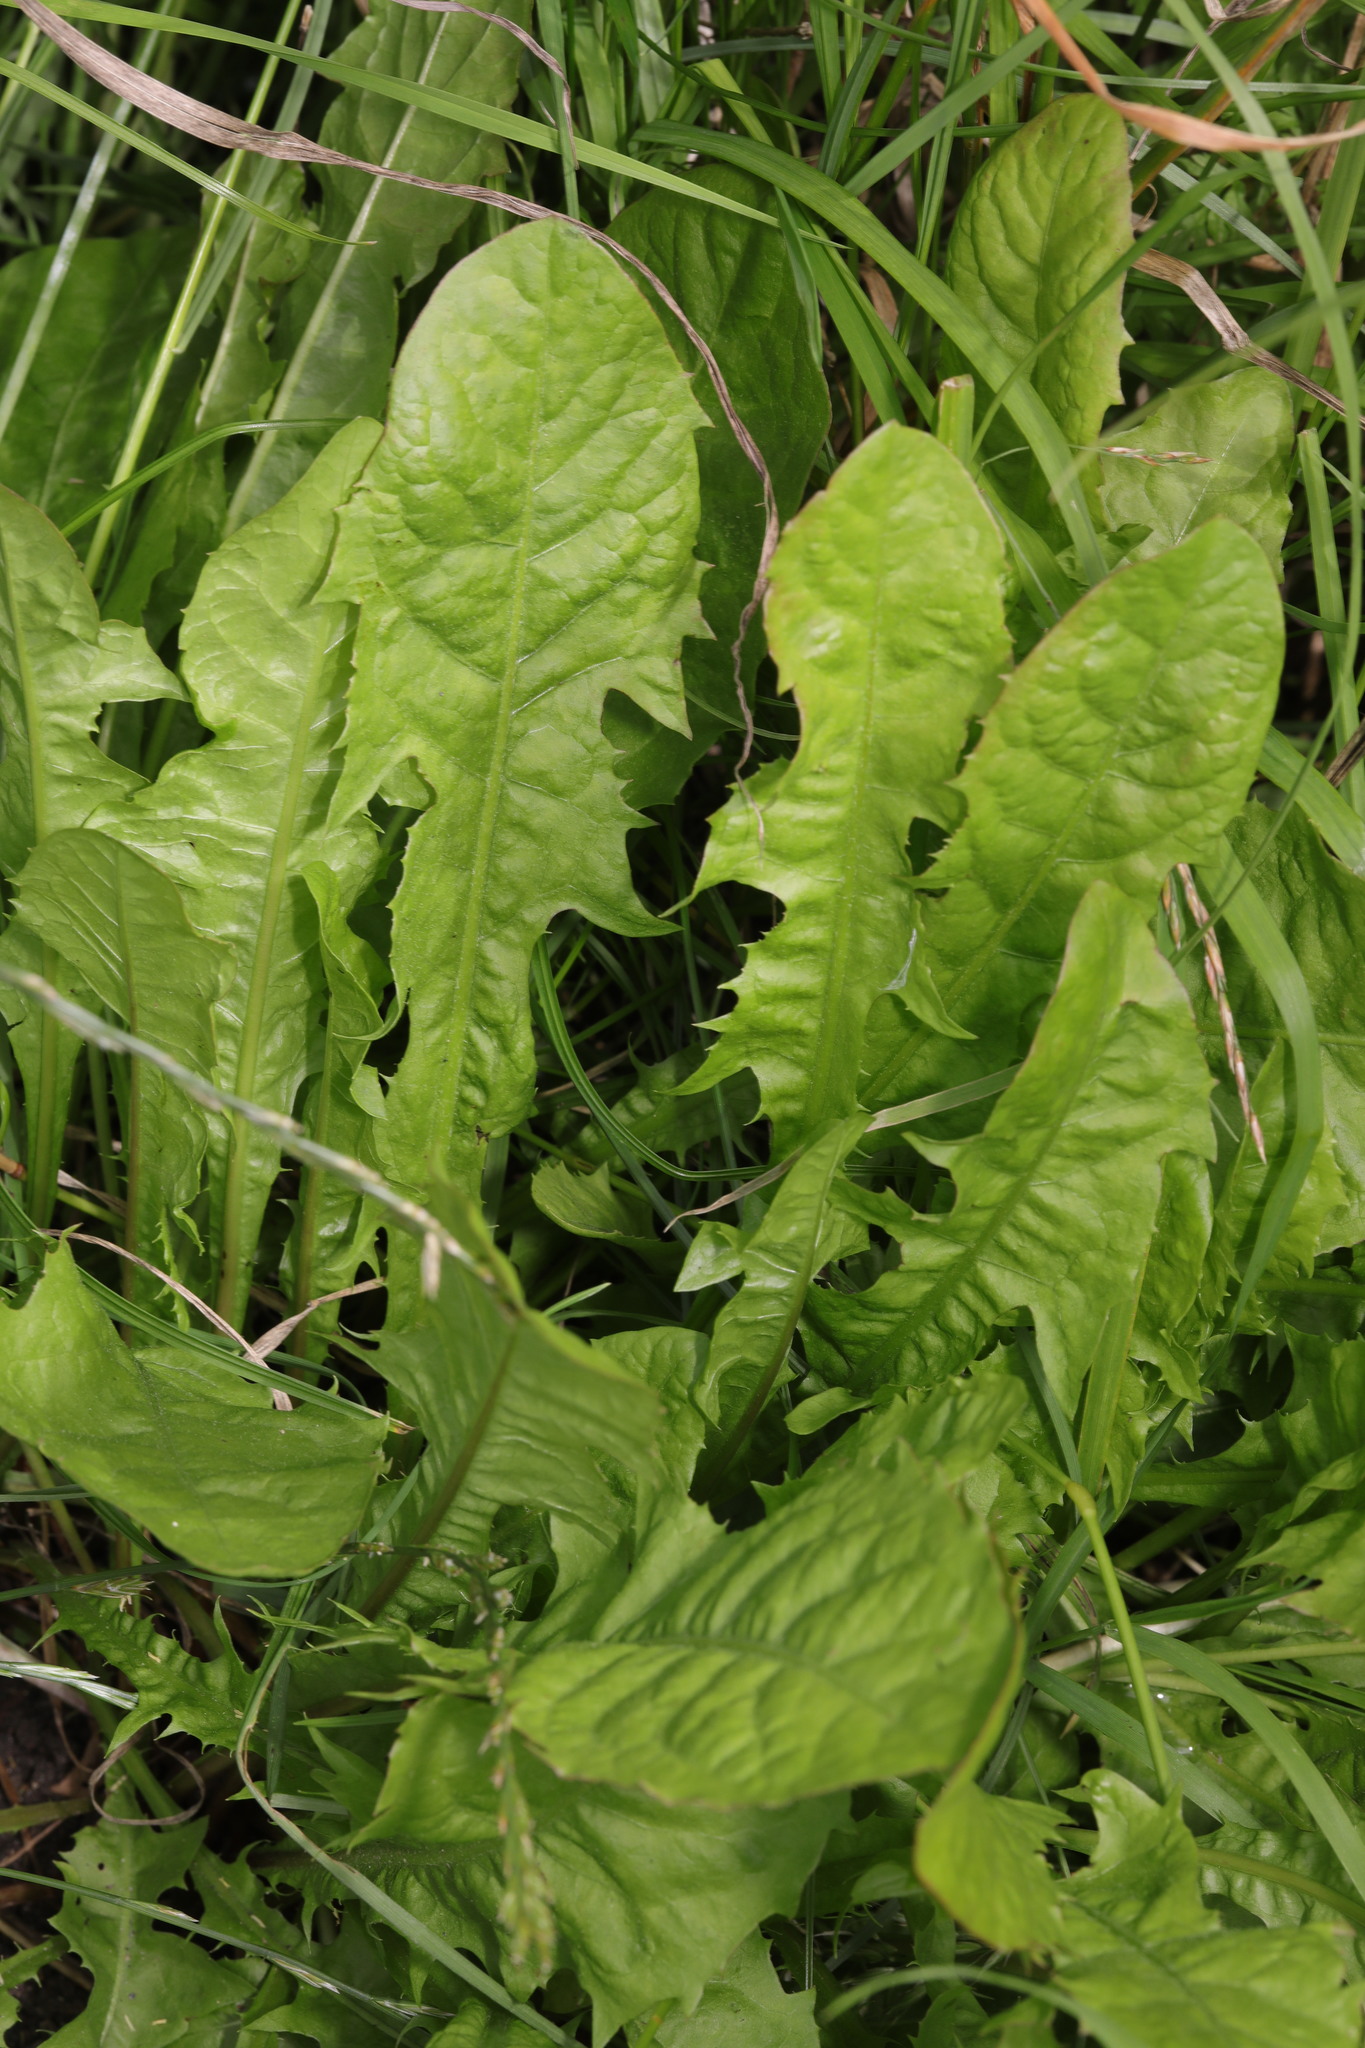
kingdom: Plantae
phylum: Tracheophyta
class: Magnoliopsida
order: Asterales
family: Asteraceae
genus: Taraxacum
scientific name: Taraxacum officinale
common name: Common dandelion
